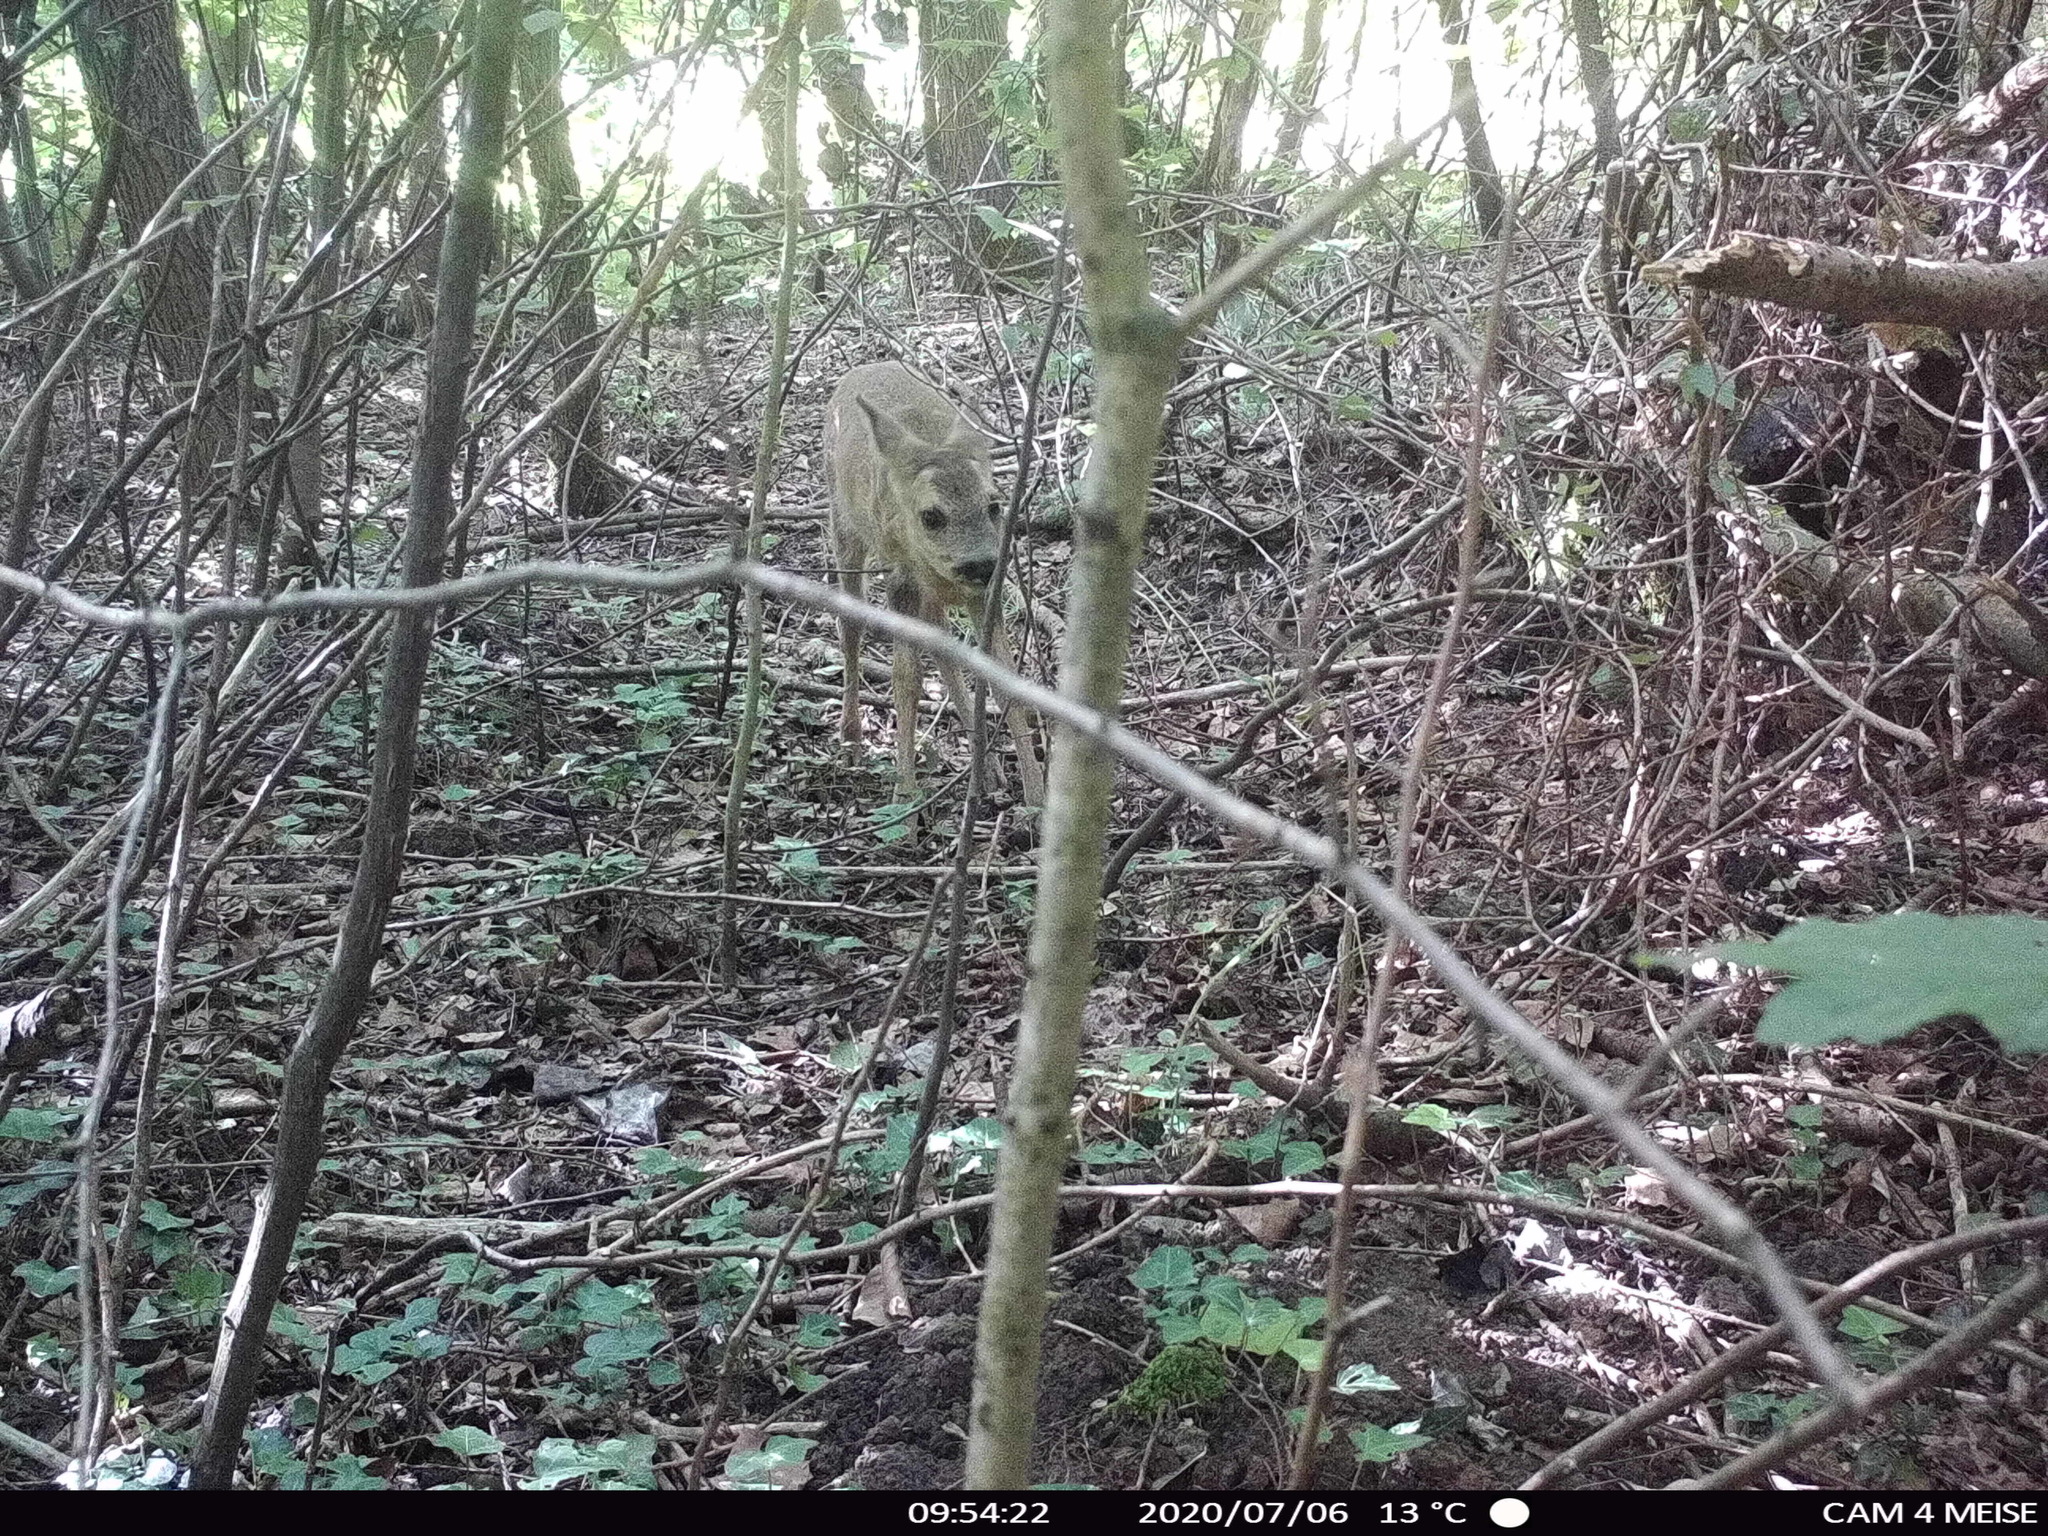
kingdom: Animalia
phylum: Chordata
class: Mammalia
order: Artiodactyla
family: Cervidae
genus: Capreolus
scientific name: Capreolus capreolus
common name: Western roe deer
